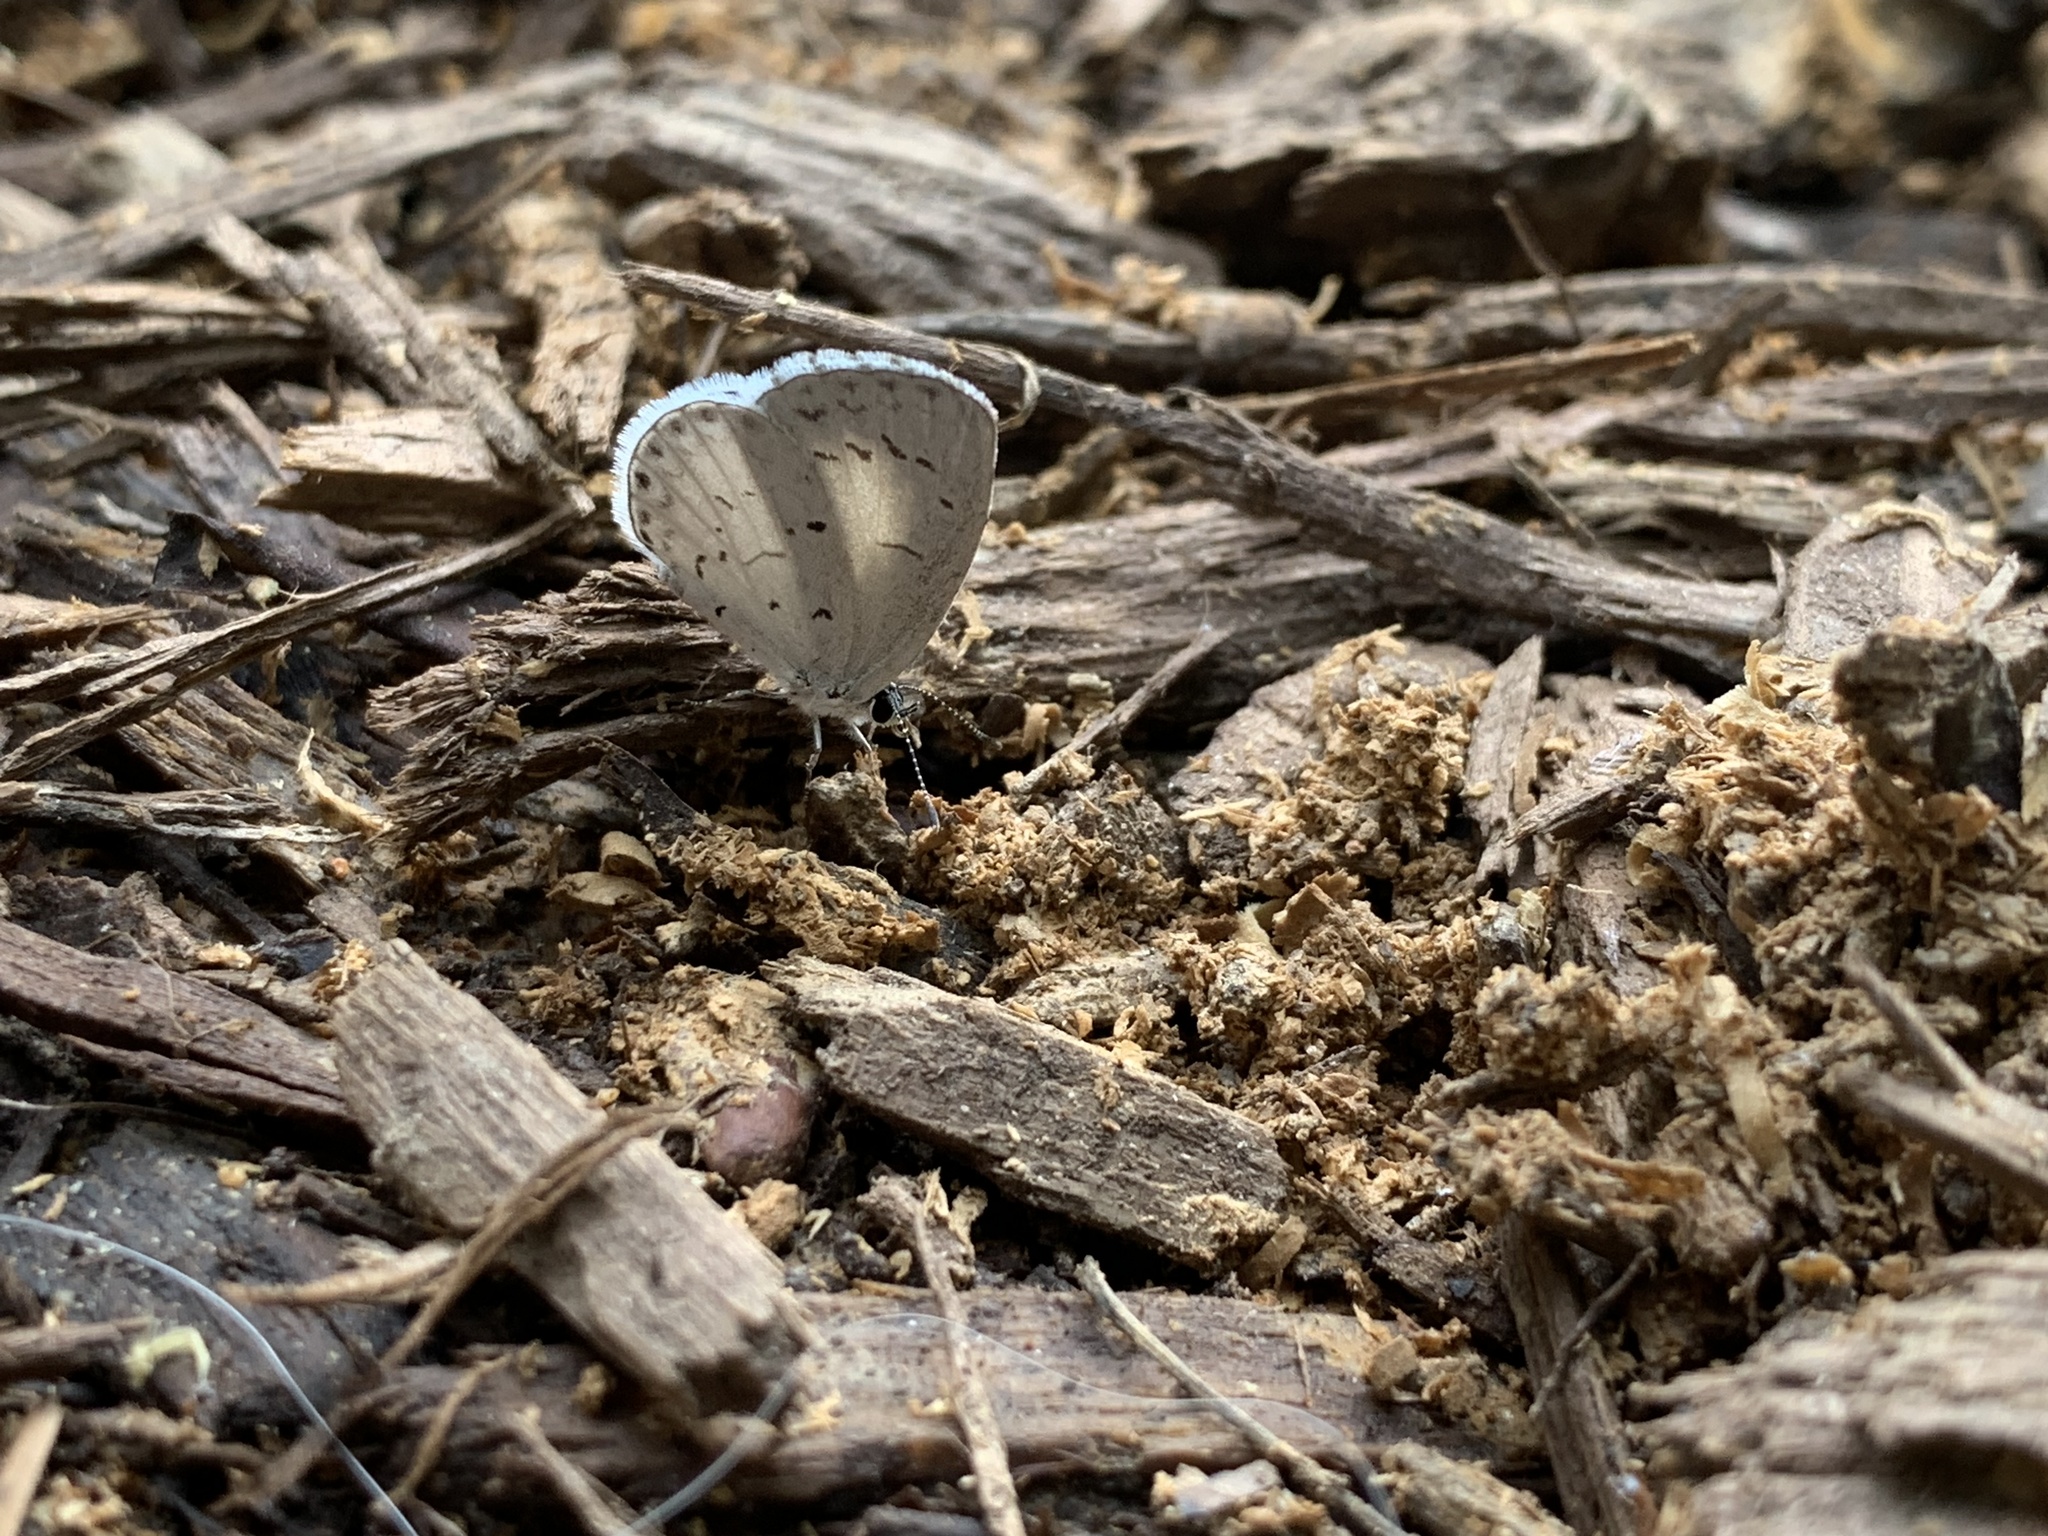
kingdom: Animalia
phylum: Arthropoda
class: Insecta
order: Lepidoptera
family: Lycaenidae
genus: Cyaniris
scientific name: Cyaniris neglecta
